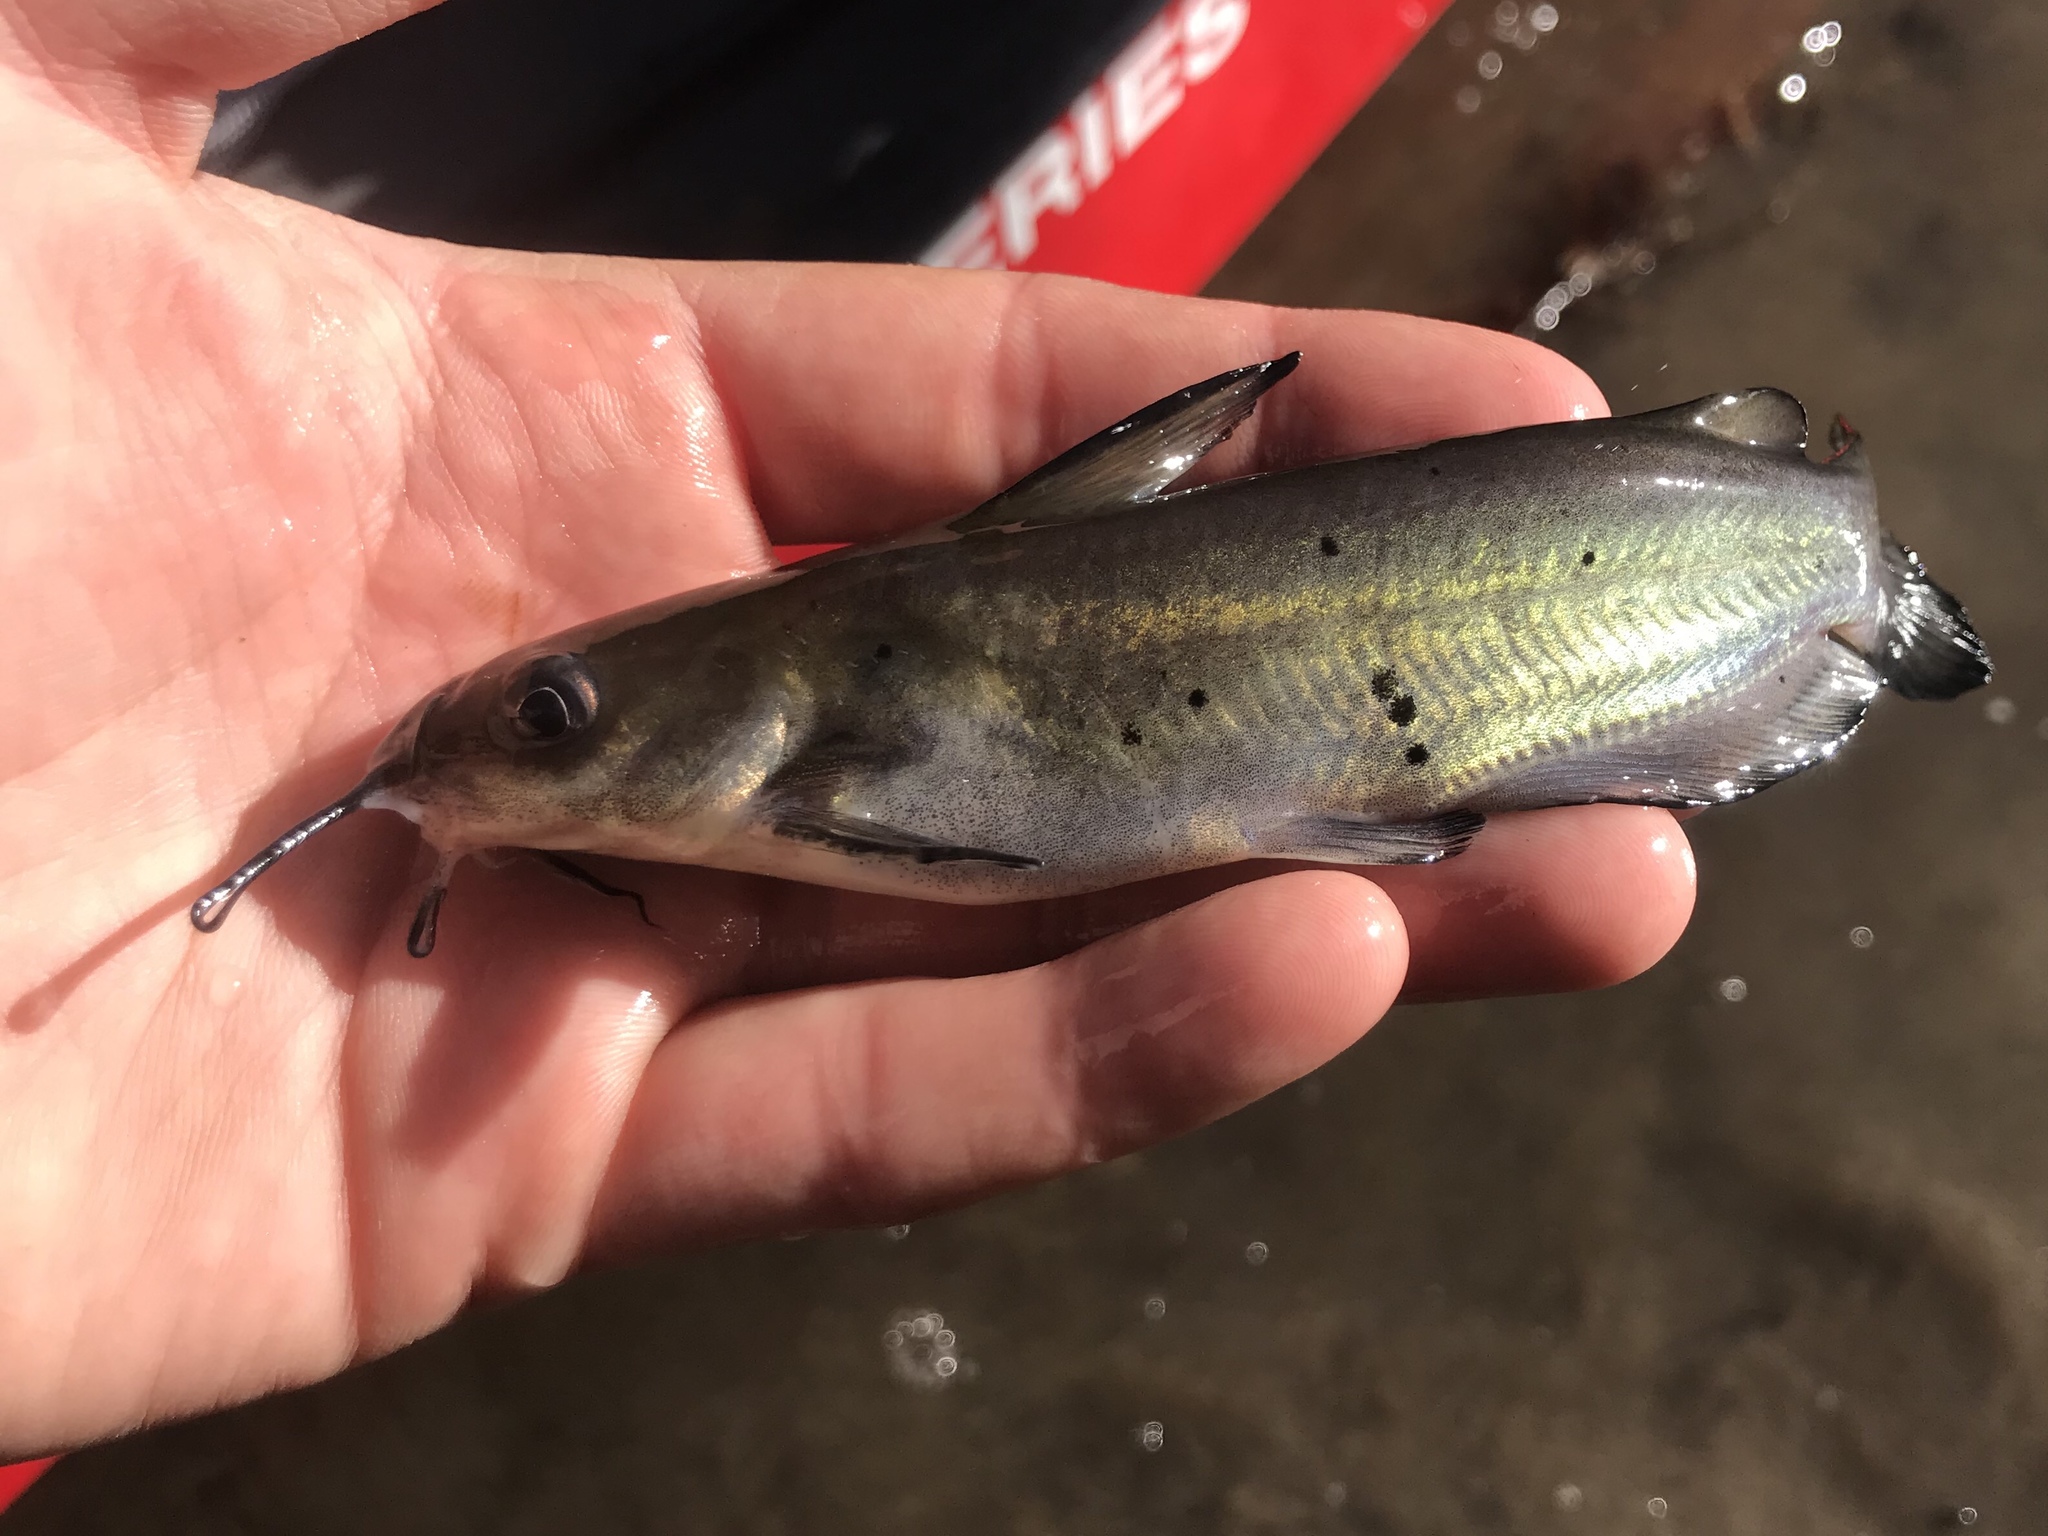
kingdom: Animalia
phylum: Chordata
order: Siluriformes
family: Ictaluridae
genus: Ictalurus
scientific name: Ictalurus punctatus
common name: Channel catfish
